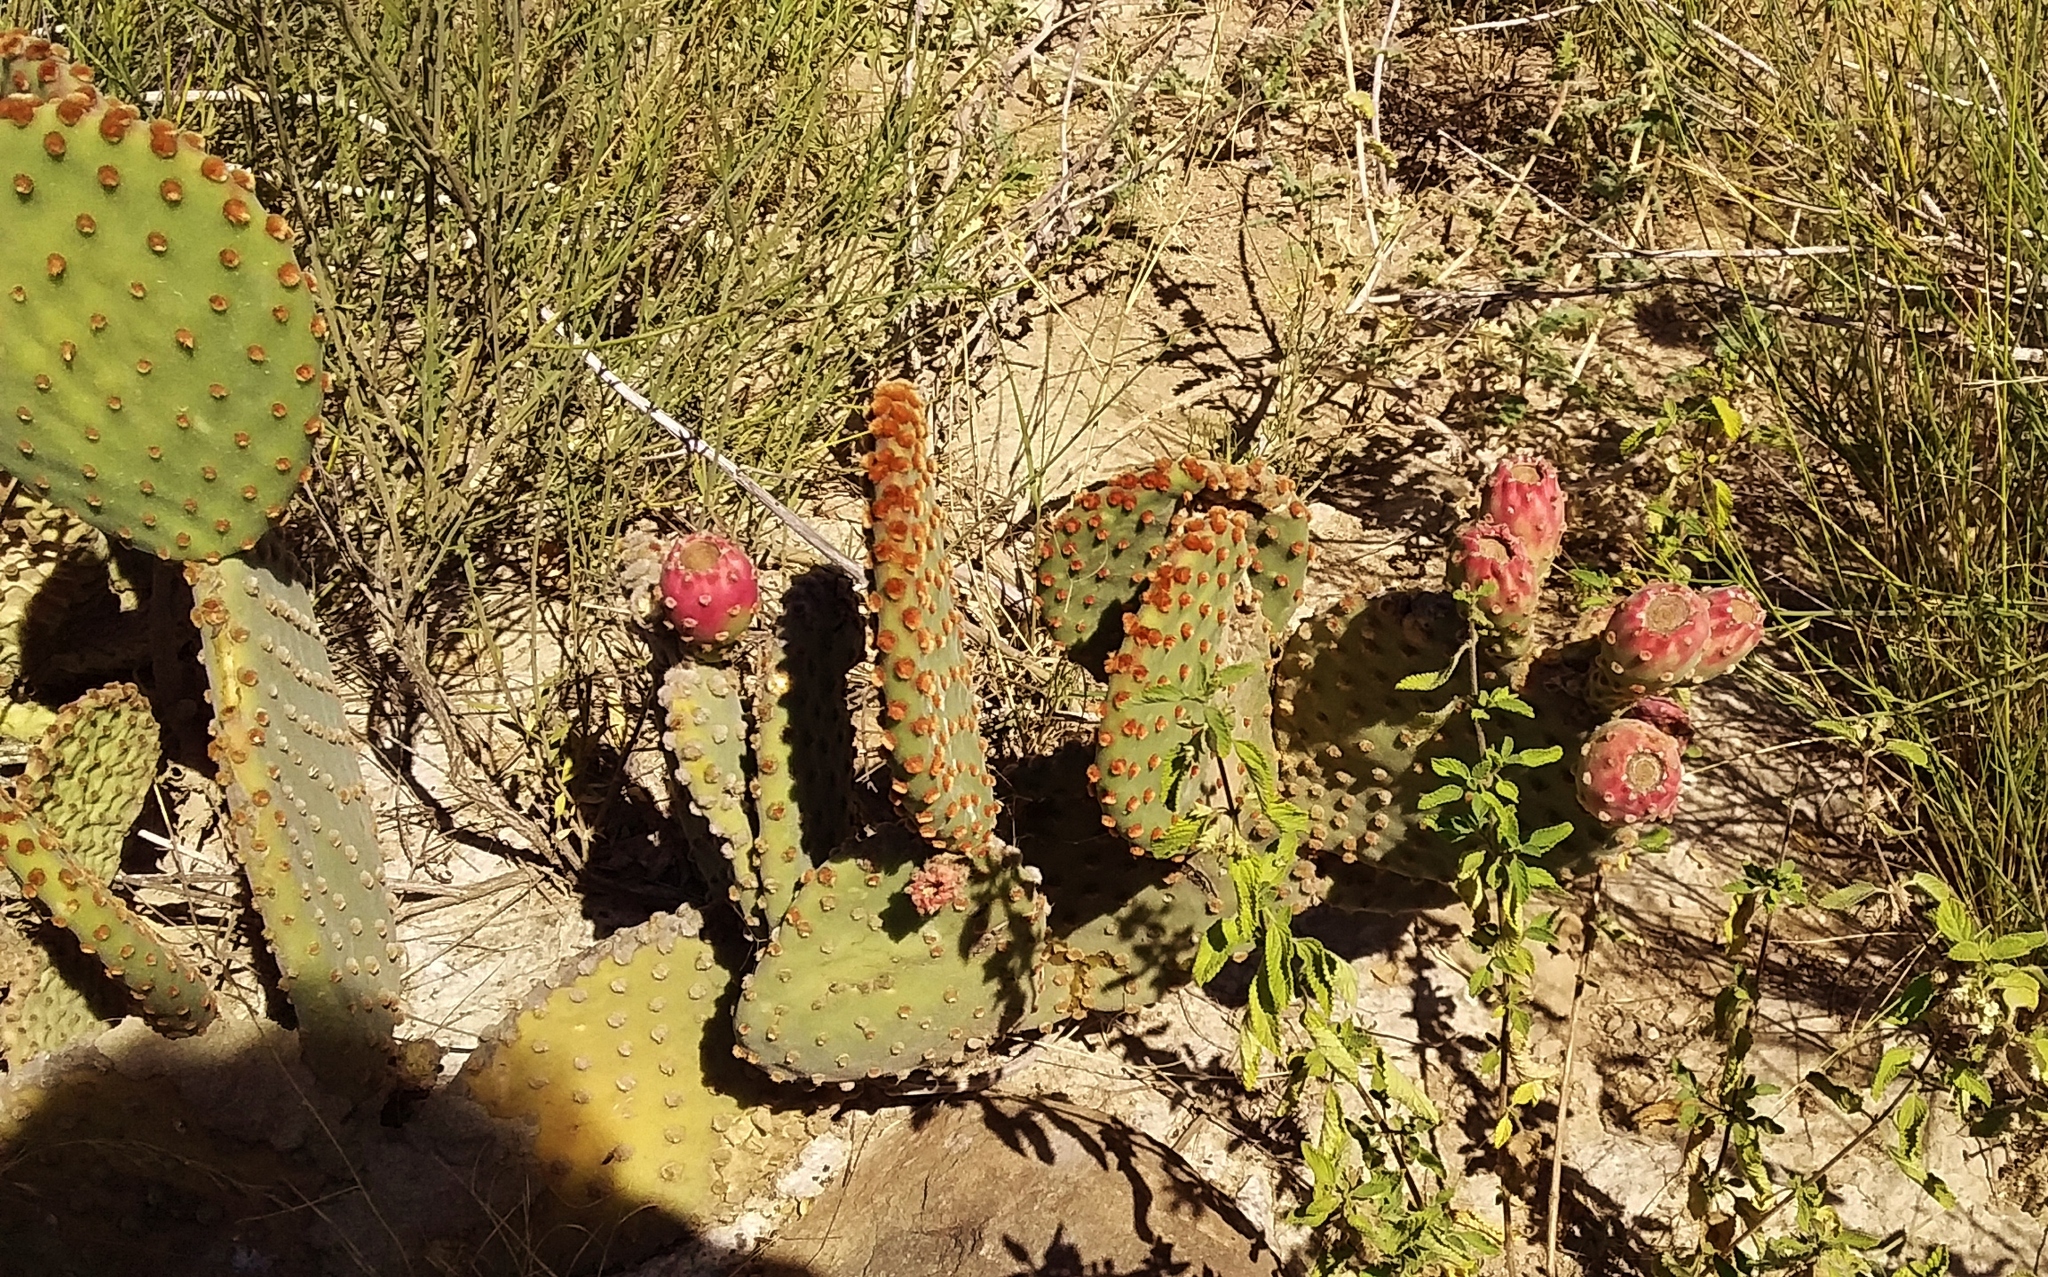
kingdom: Plantae
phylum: Tracheophyta
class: Magnoliopsida
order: Caryophyllales
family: Cactaceae
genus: Opuntia
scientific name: Opuntia microdasys
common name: Angel's-wings
